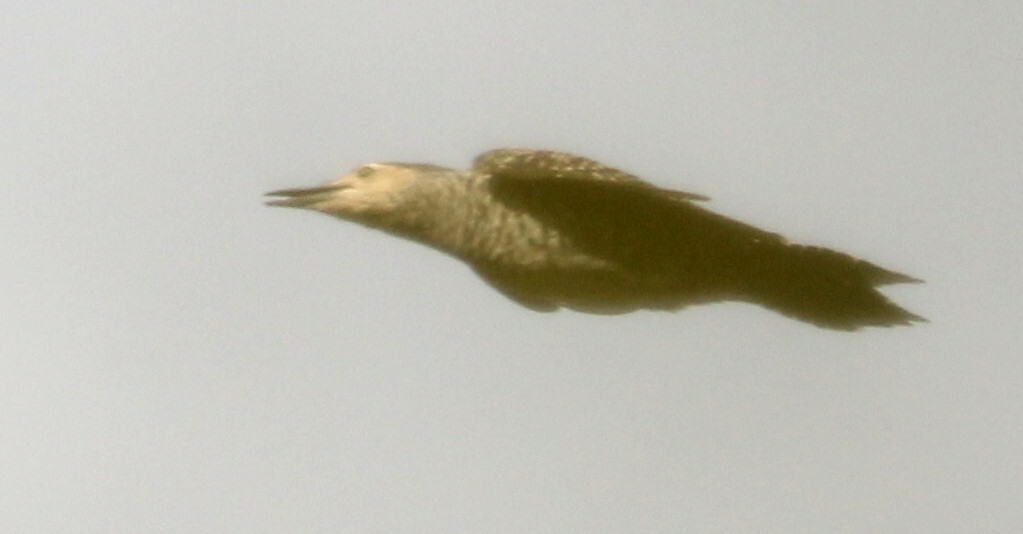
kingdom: Animalia
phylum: Chordata
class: Aves
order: Piciformes
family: Picidae
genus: Colaptes
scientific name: Colaptes pitius
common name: Chilean flicker
